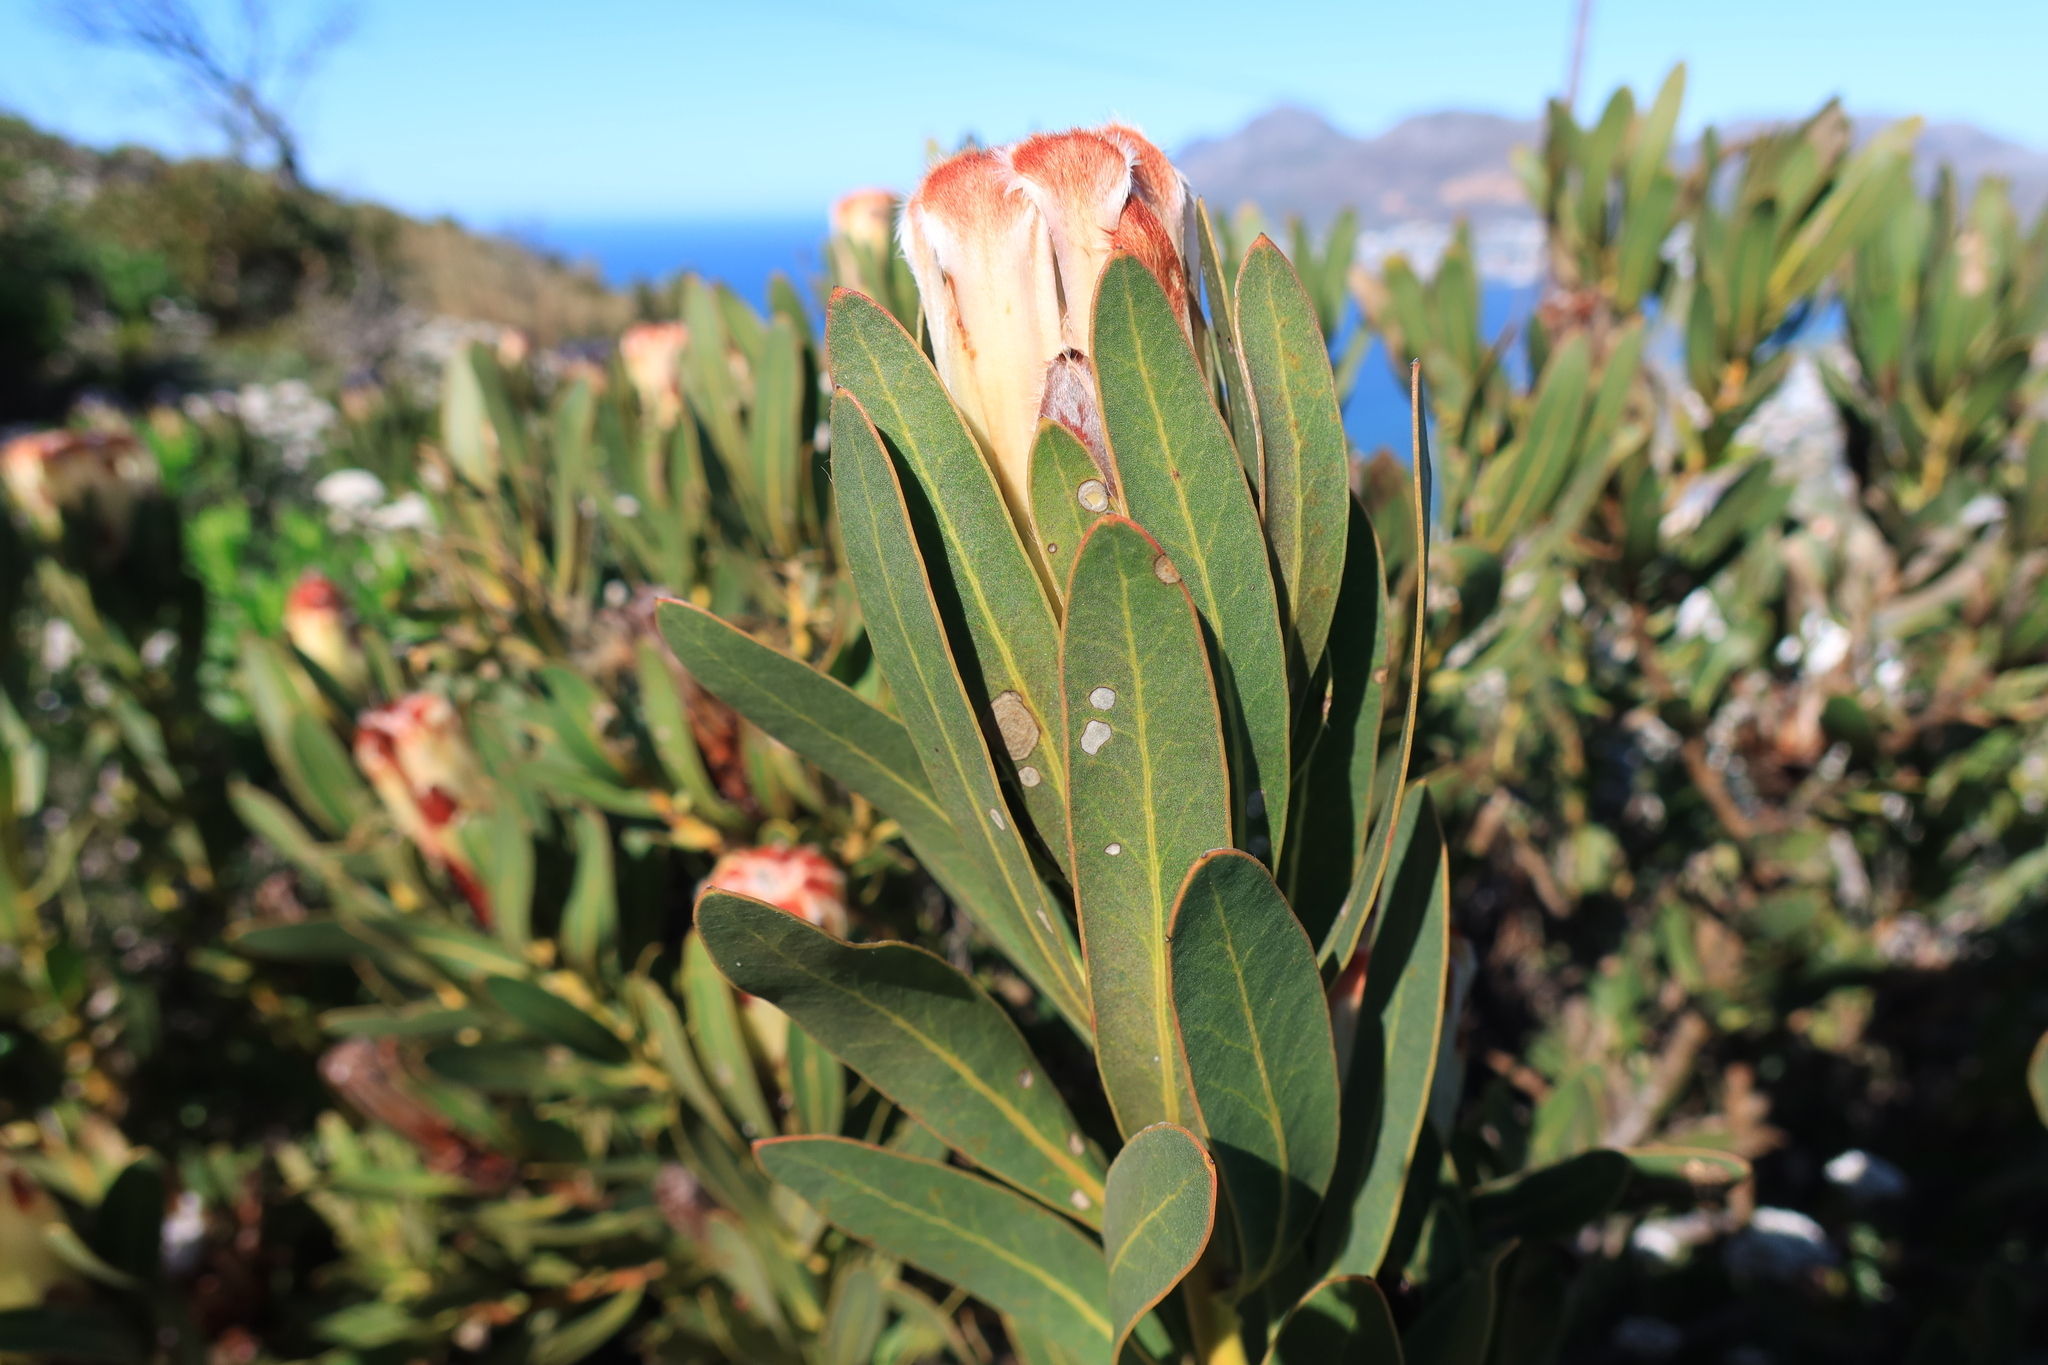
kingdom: Plantae
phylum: Tracheophyta
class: Magnoliopsida
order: Proteales
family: Proteaceae
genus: Protea
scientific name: Protea lepidocarpodendron
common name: Black-bearded protea
